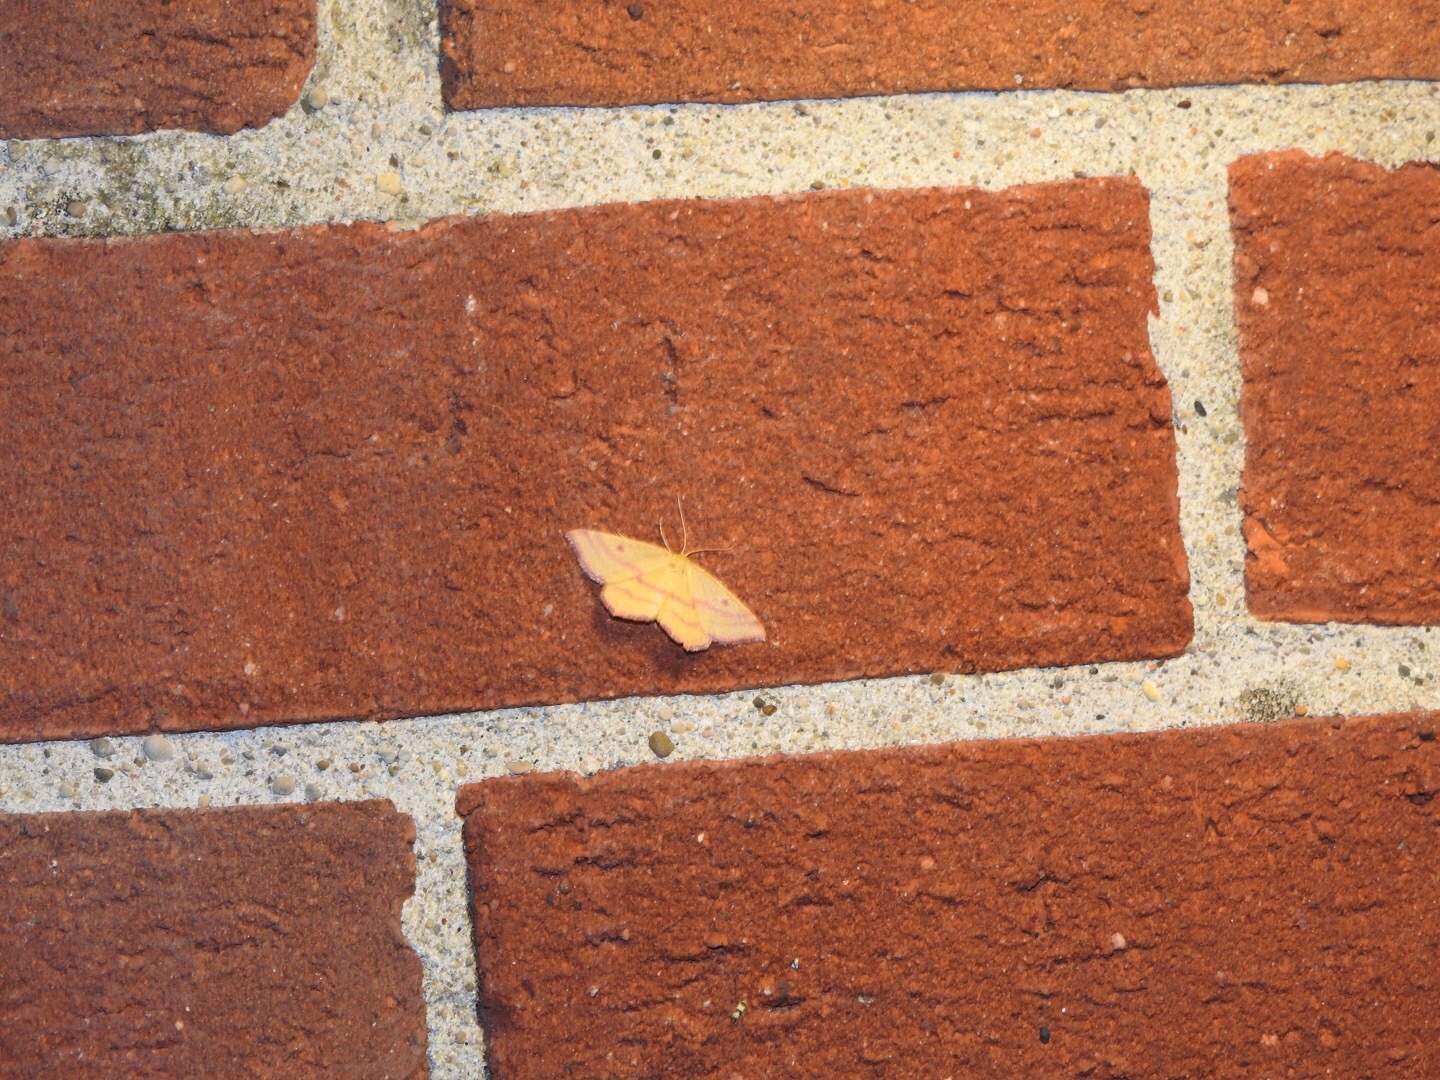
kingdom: Animalia
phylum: Arthropoda
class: Insecta
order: Lepidoptera
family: Geometridae
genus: Haematopis
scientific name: Haematopis grataria
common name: Chickweed geometer
